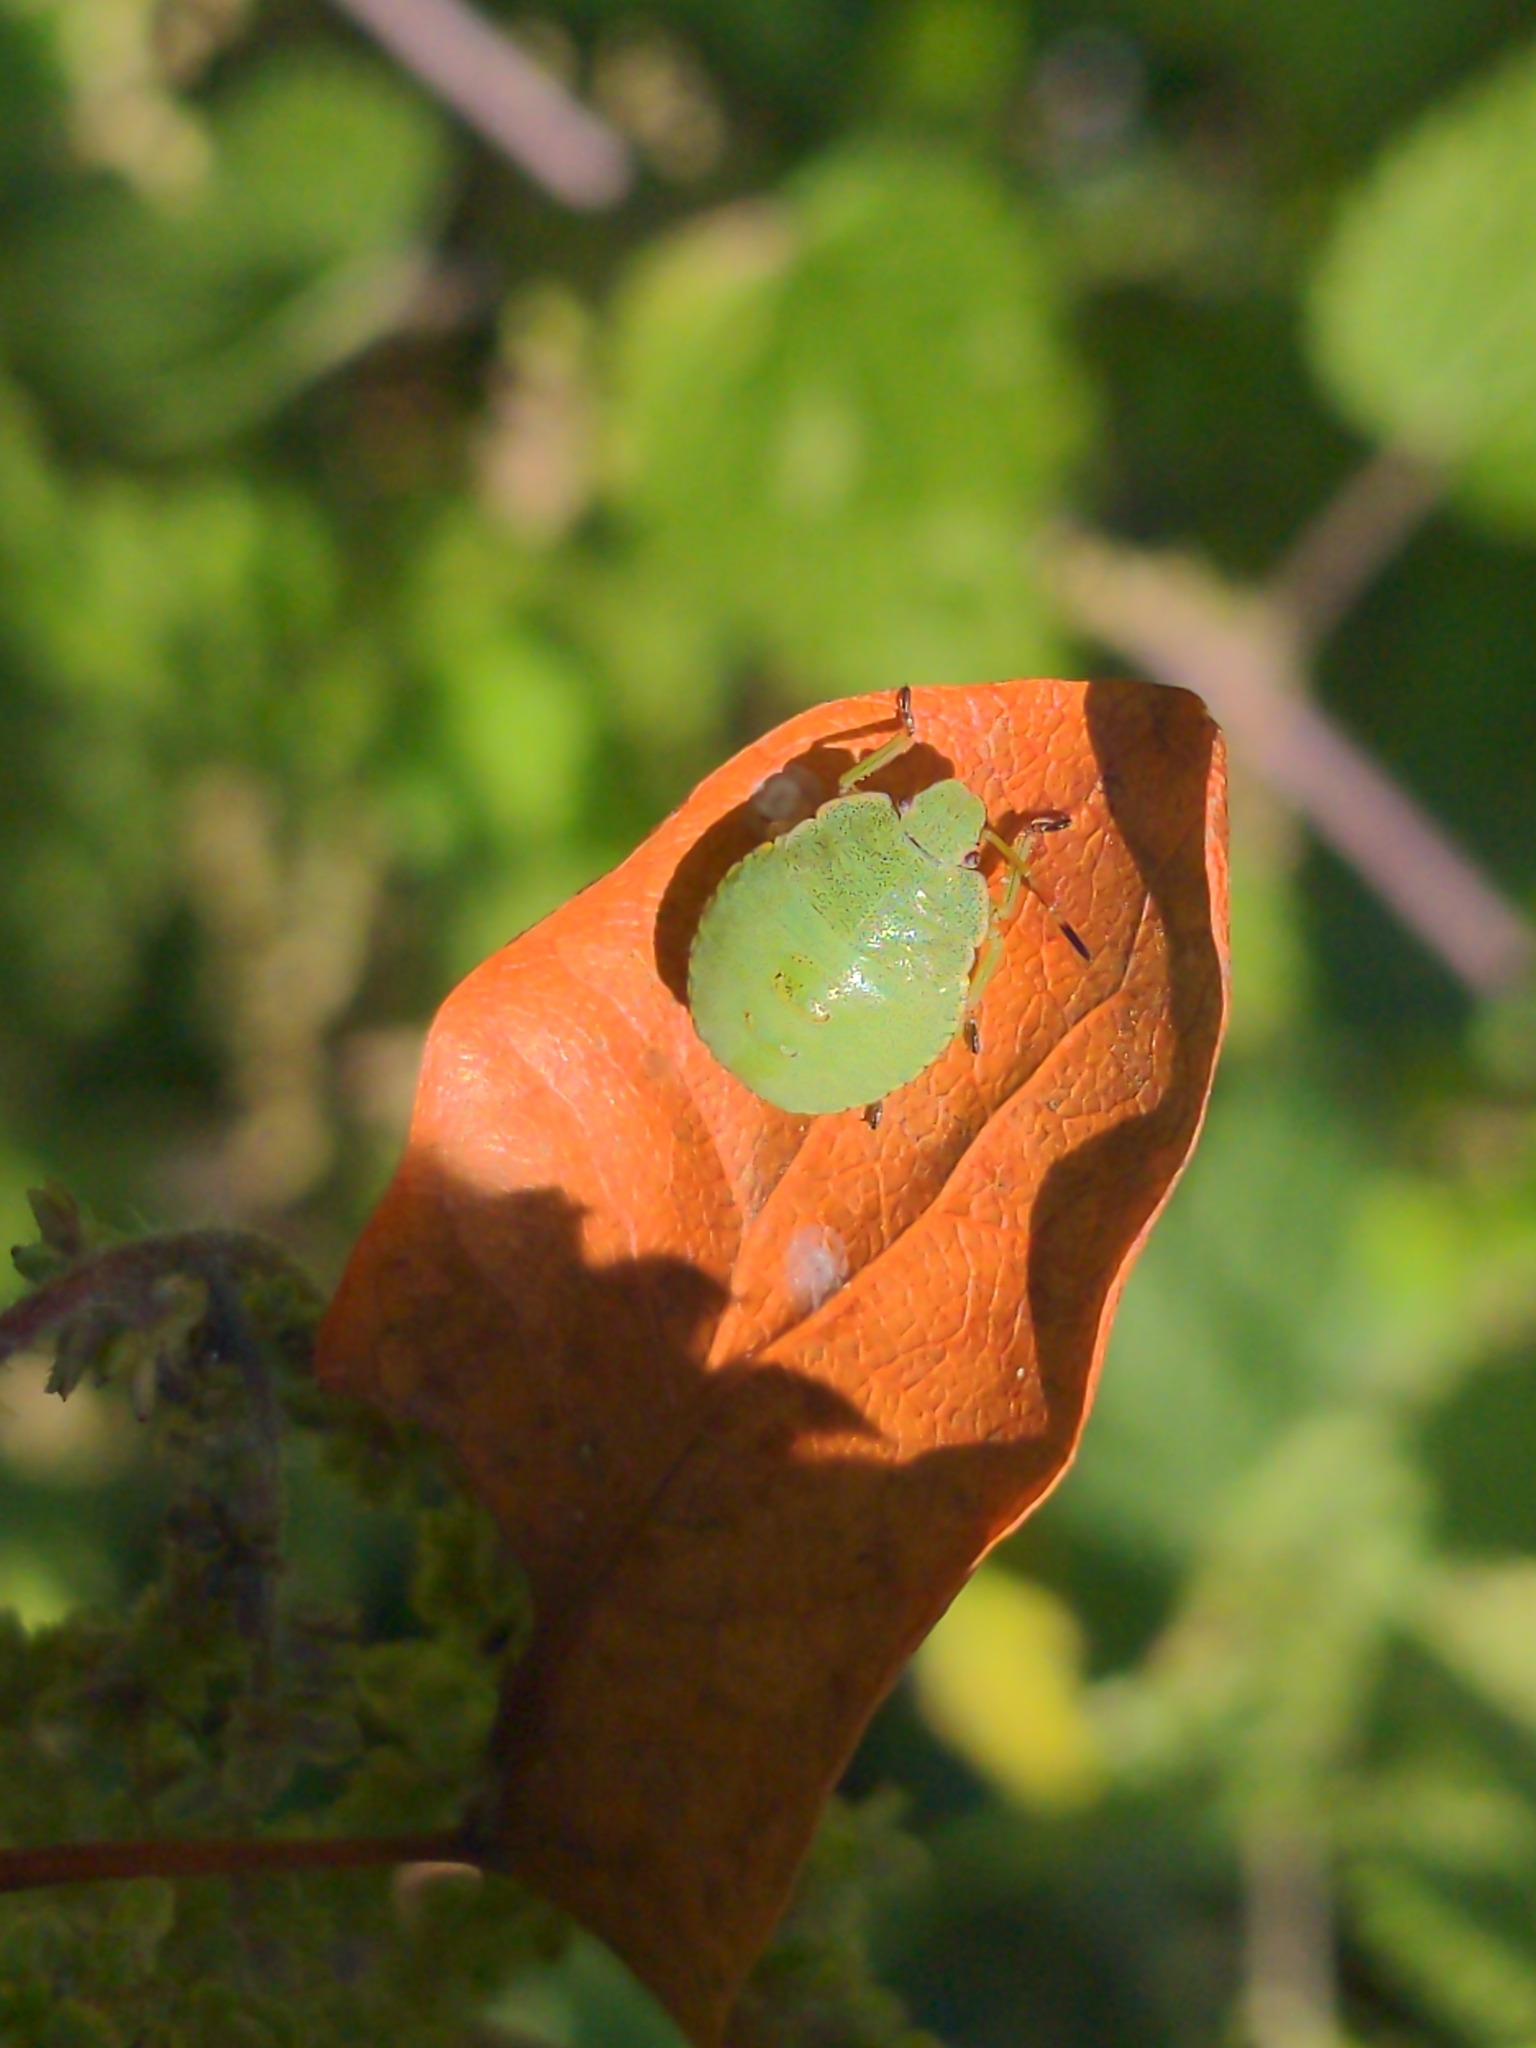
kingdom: Animalia
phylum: Arthropoda
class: Insecta
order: Hemiptera
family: Pentatomidae
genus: Palomena
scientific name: Palomena prasina
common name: Green shieldbug
